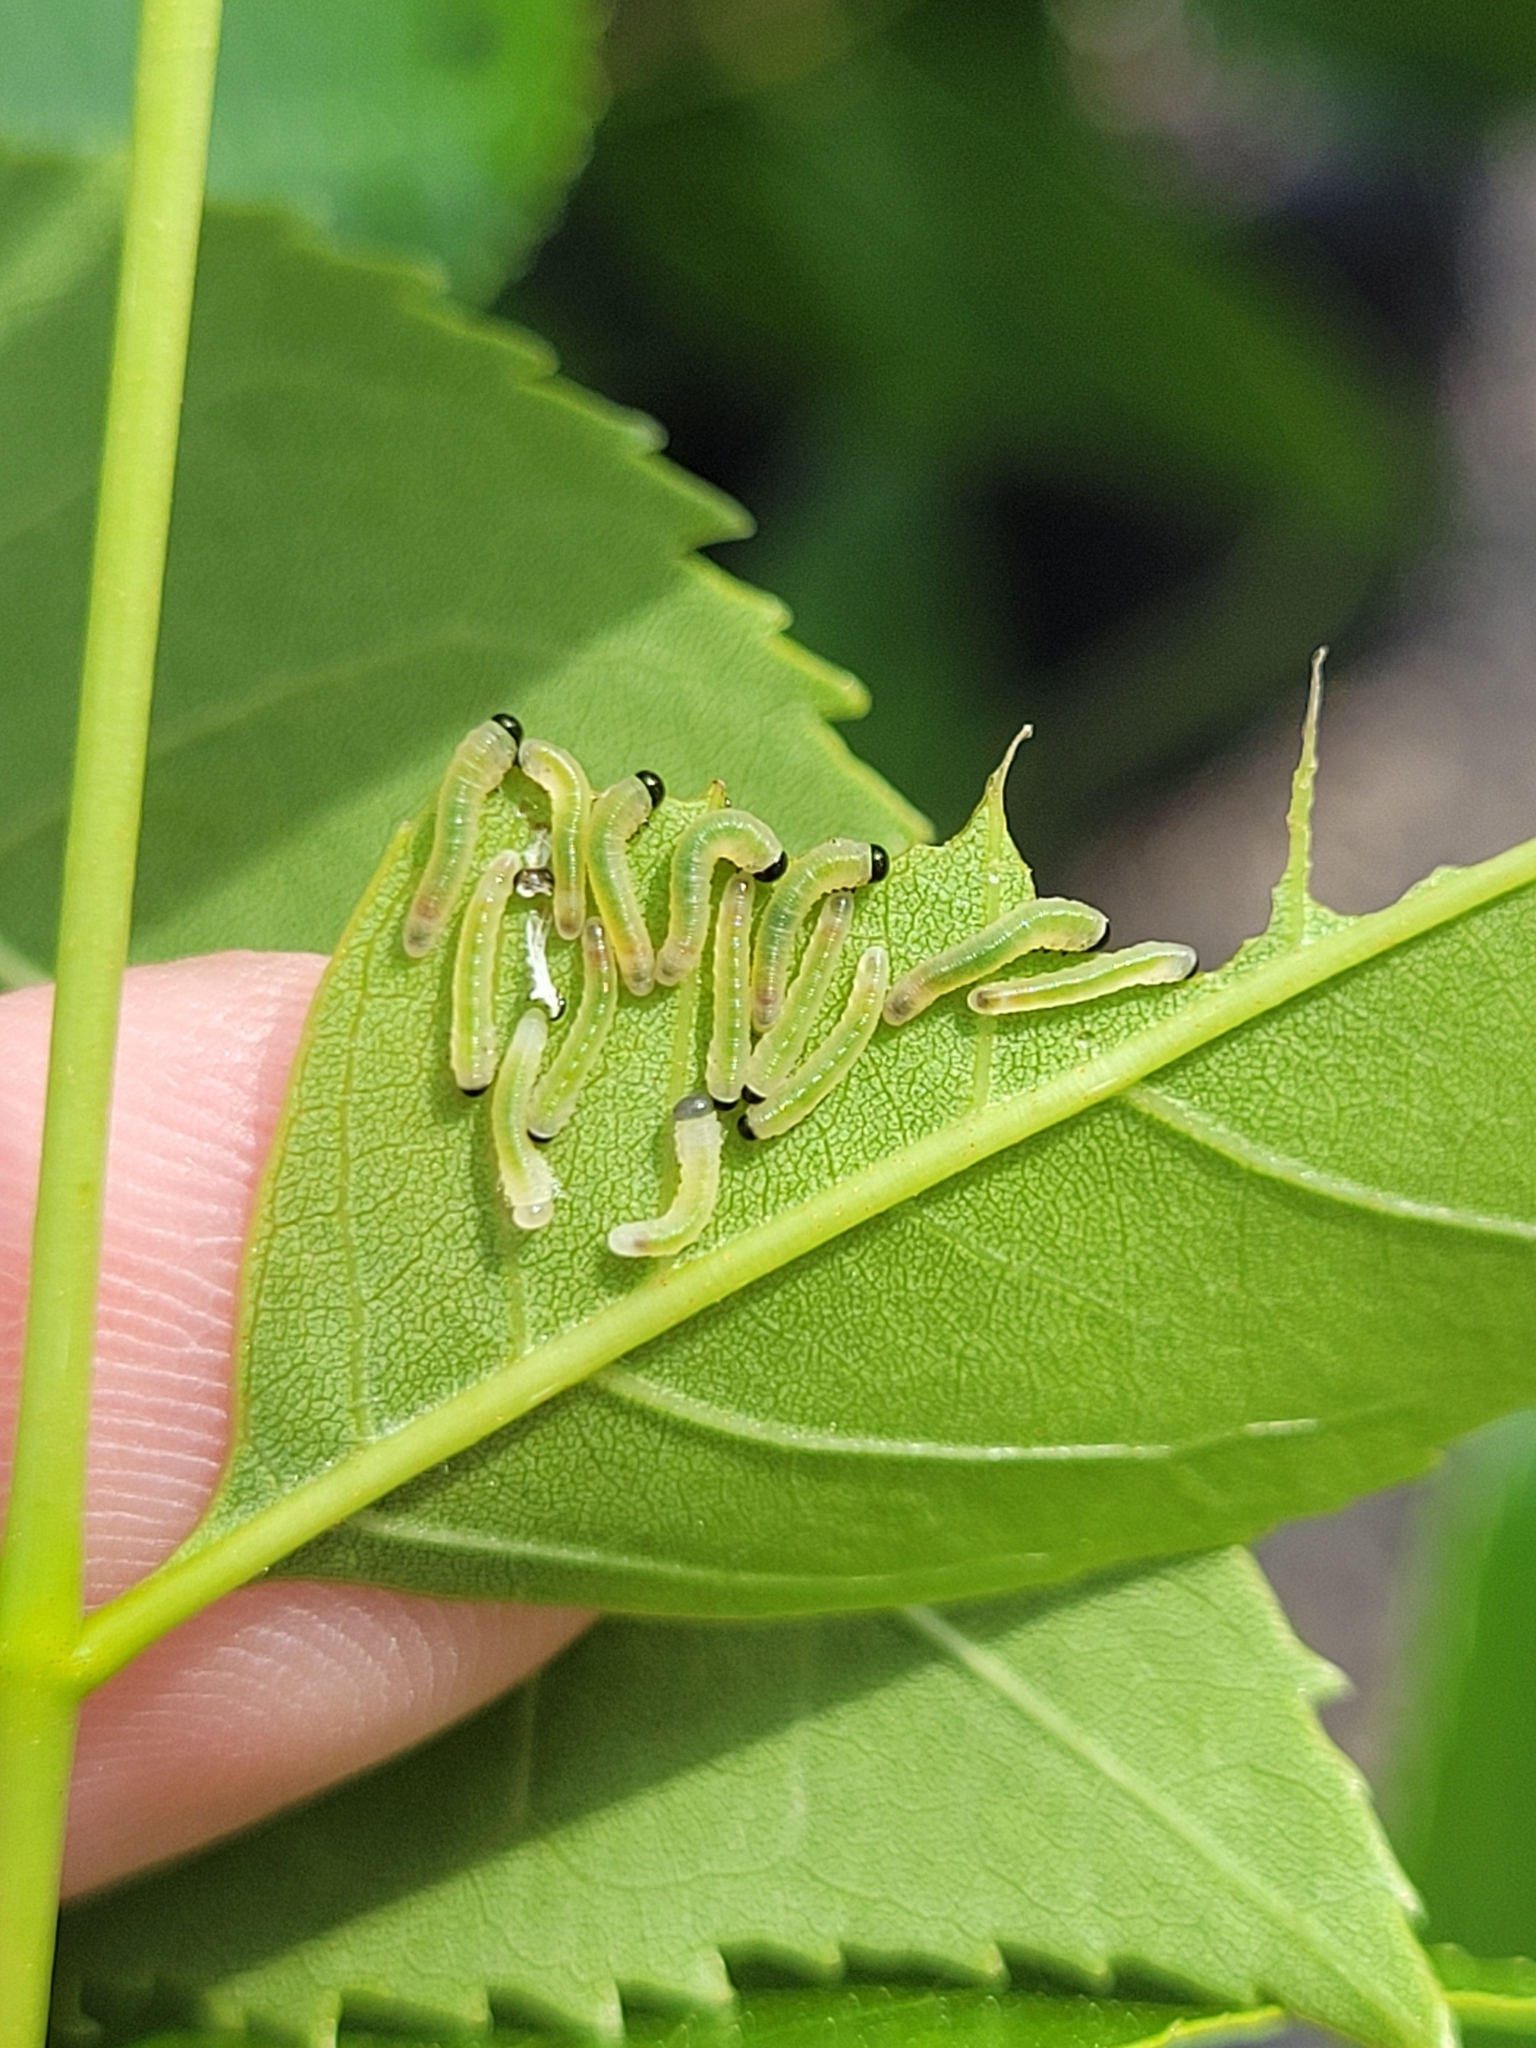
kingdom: Animalia
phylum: Arthropoda
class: Insecta
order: Hymenoptera
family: Tenthredinidae
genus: Tethida
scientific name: Tethida barda
